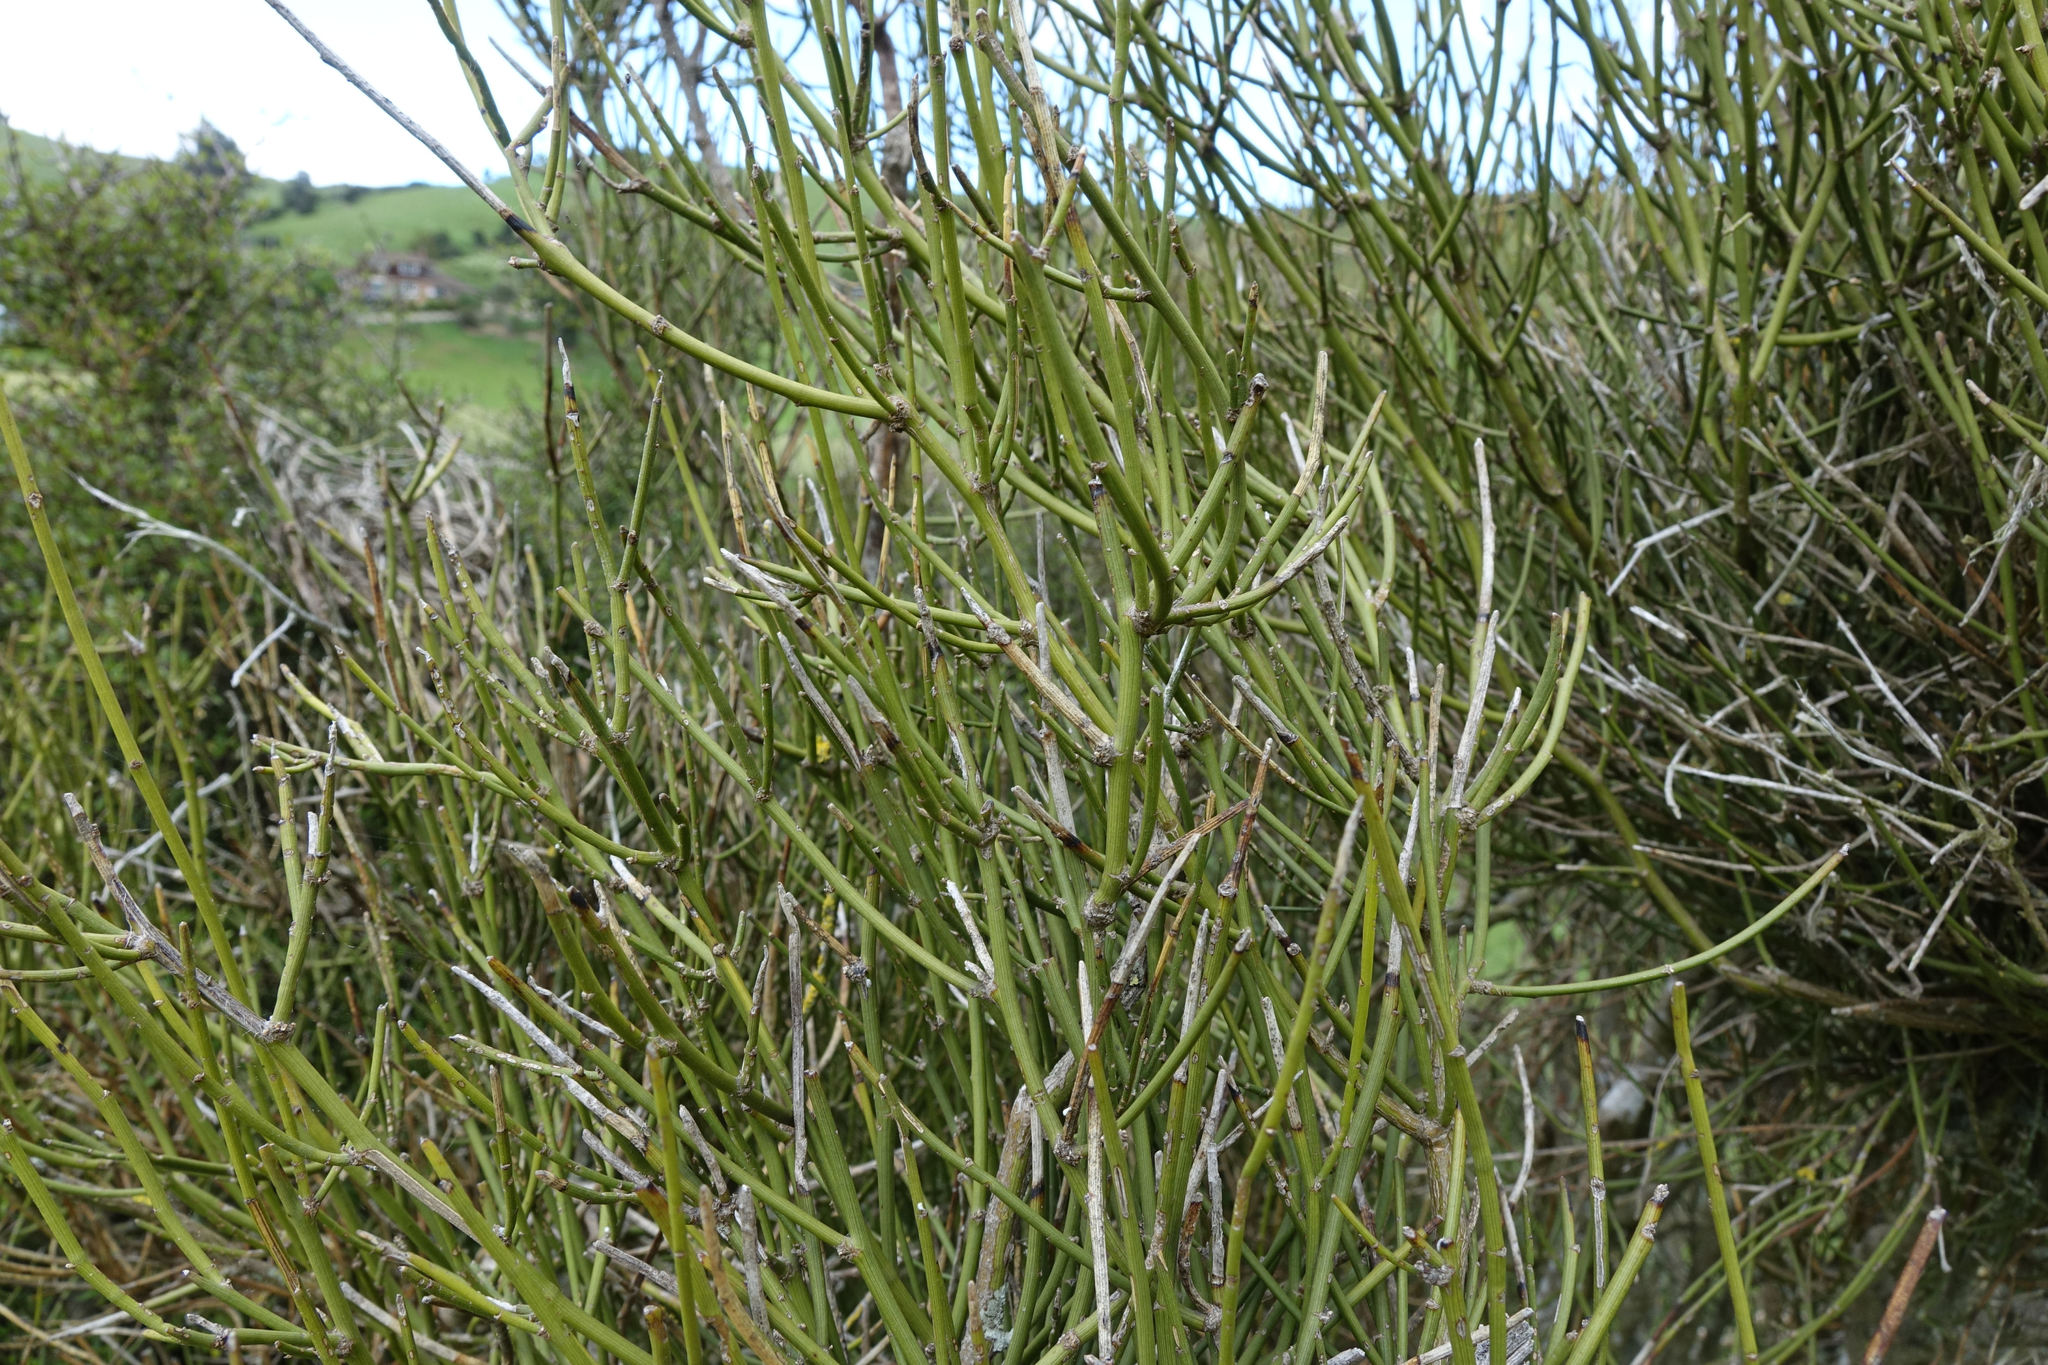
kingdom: Plantae
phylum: Tracheophyta
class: Magnoliopsida
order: Fabales
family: Fabaceae
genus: Carmichaelia
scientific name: Carmichaelia petriei
